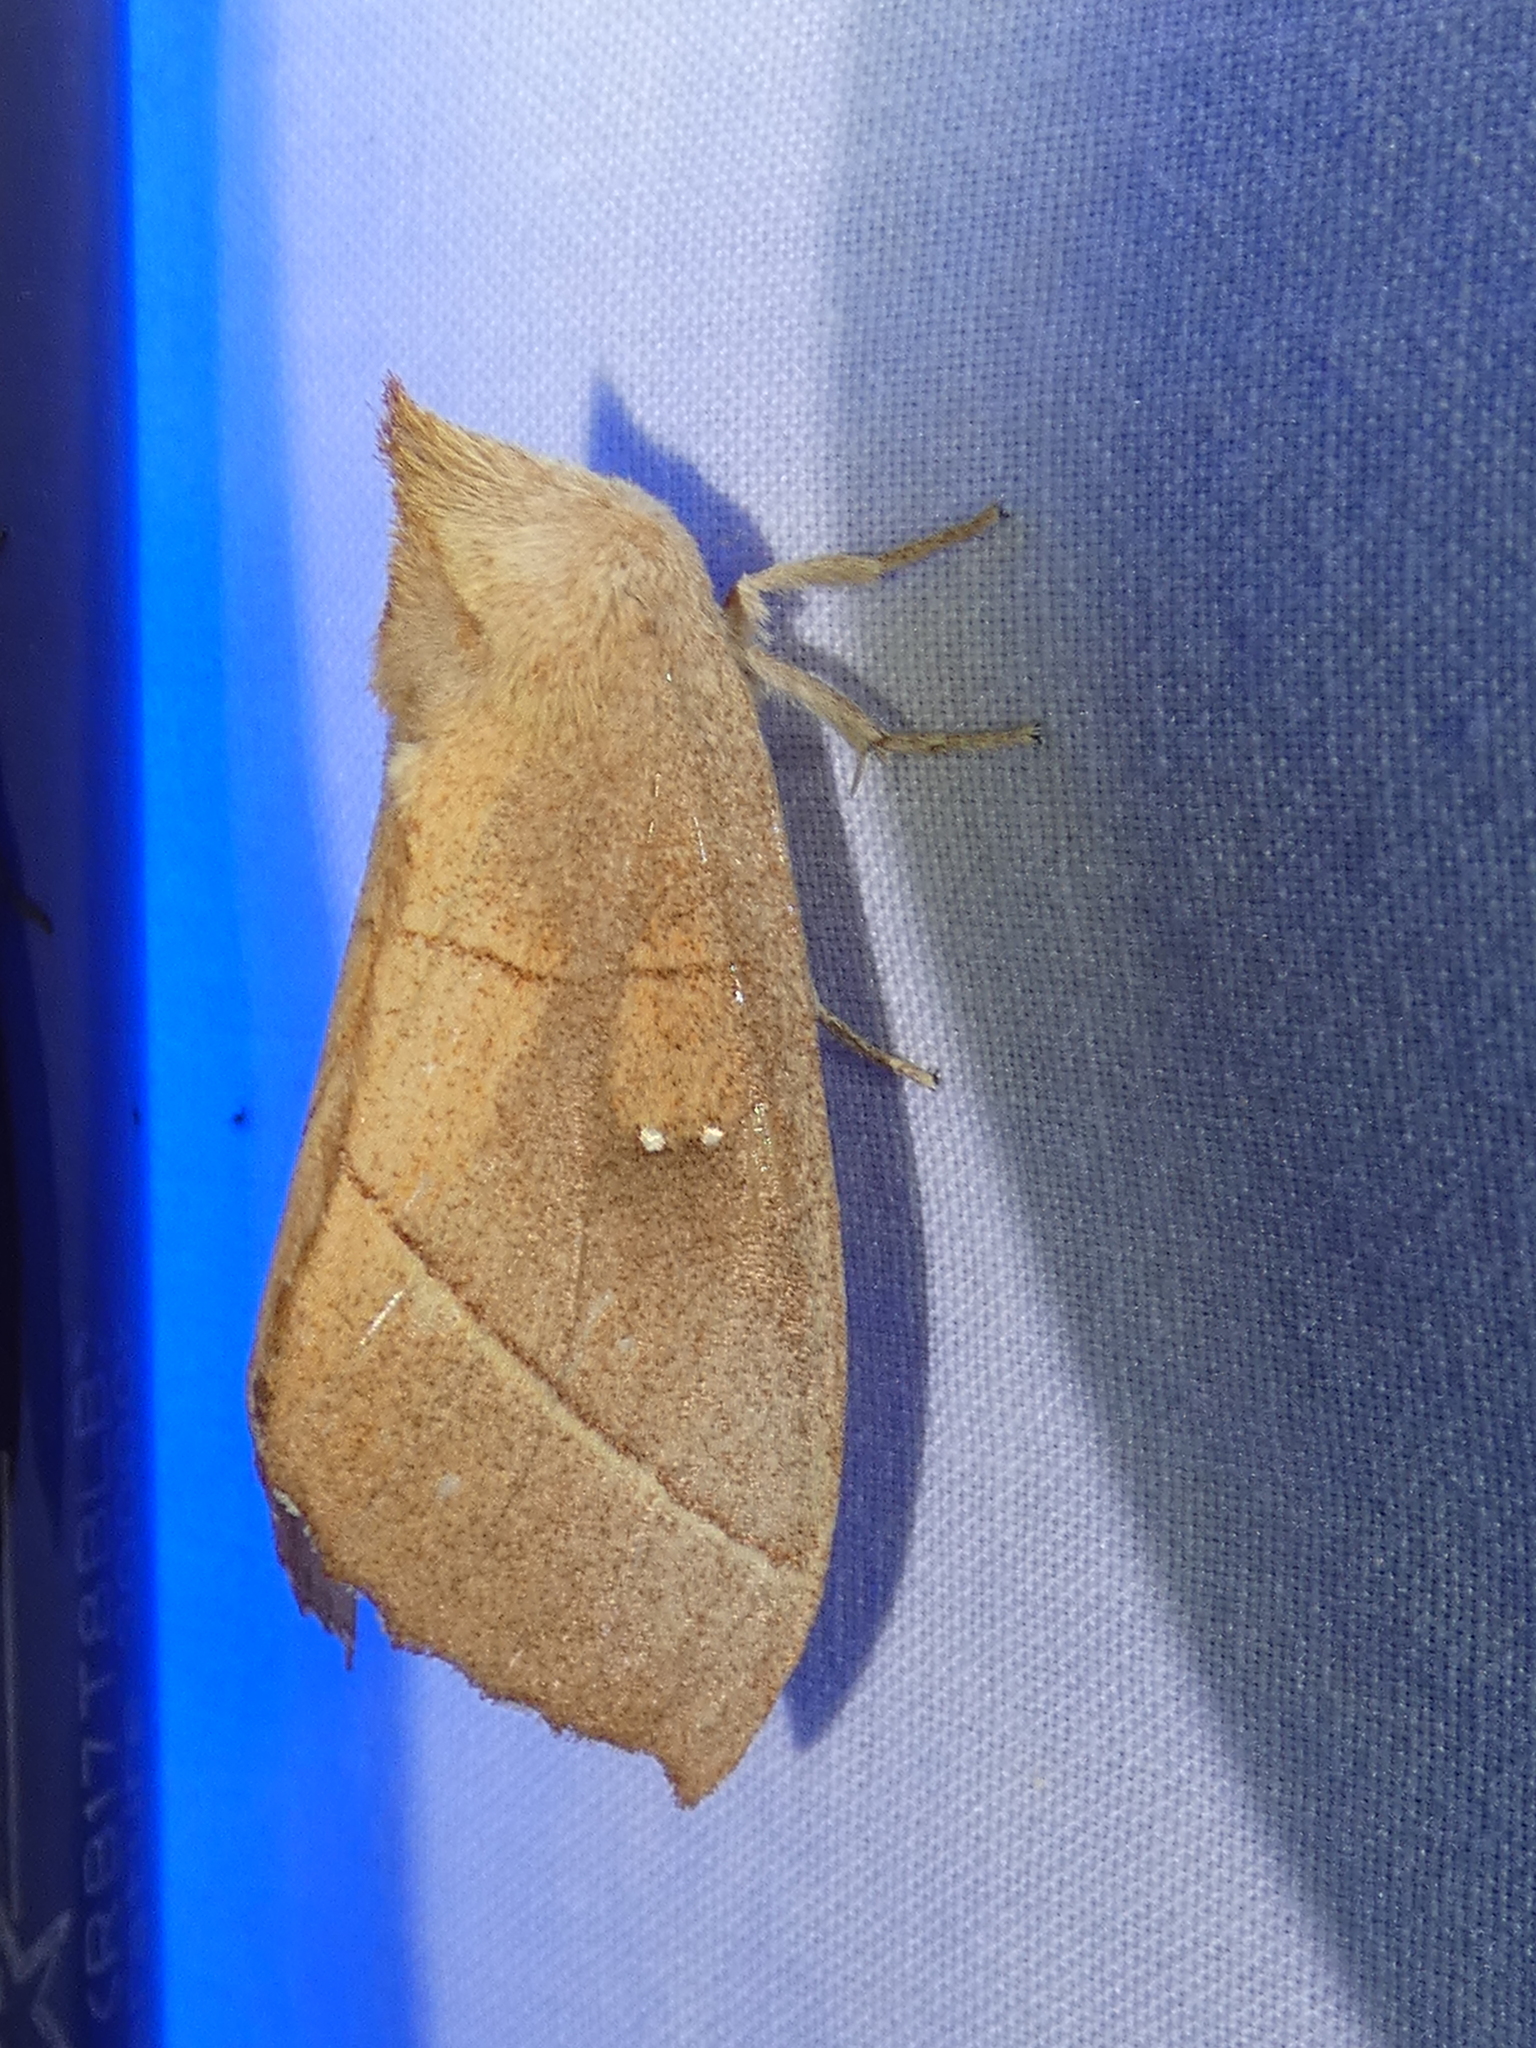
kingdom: Animalia
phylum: Arthropoda
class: Insecta
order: Lepidoptera
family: Notodontidae
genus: Nadata
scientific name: Nadata gibbosa
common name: White-dotted prominent
